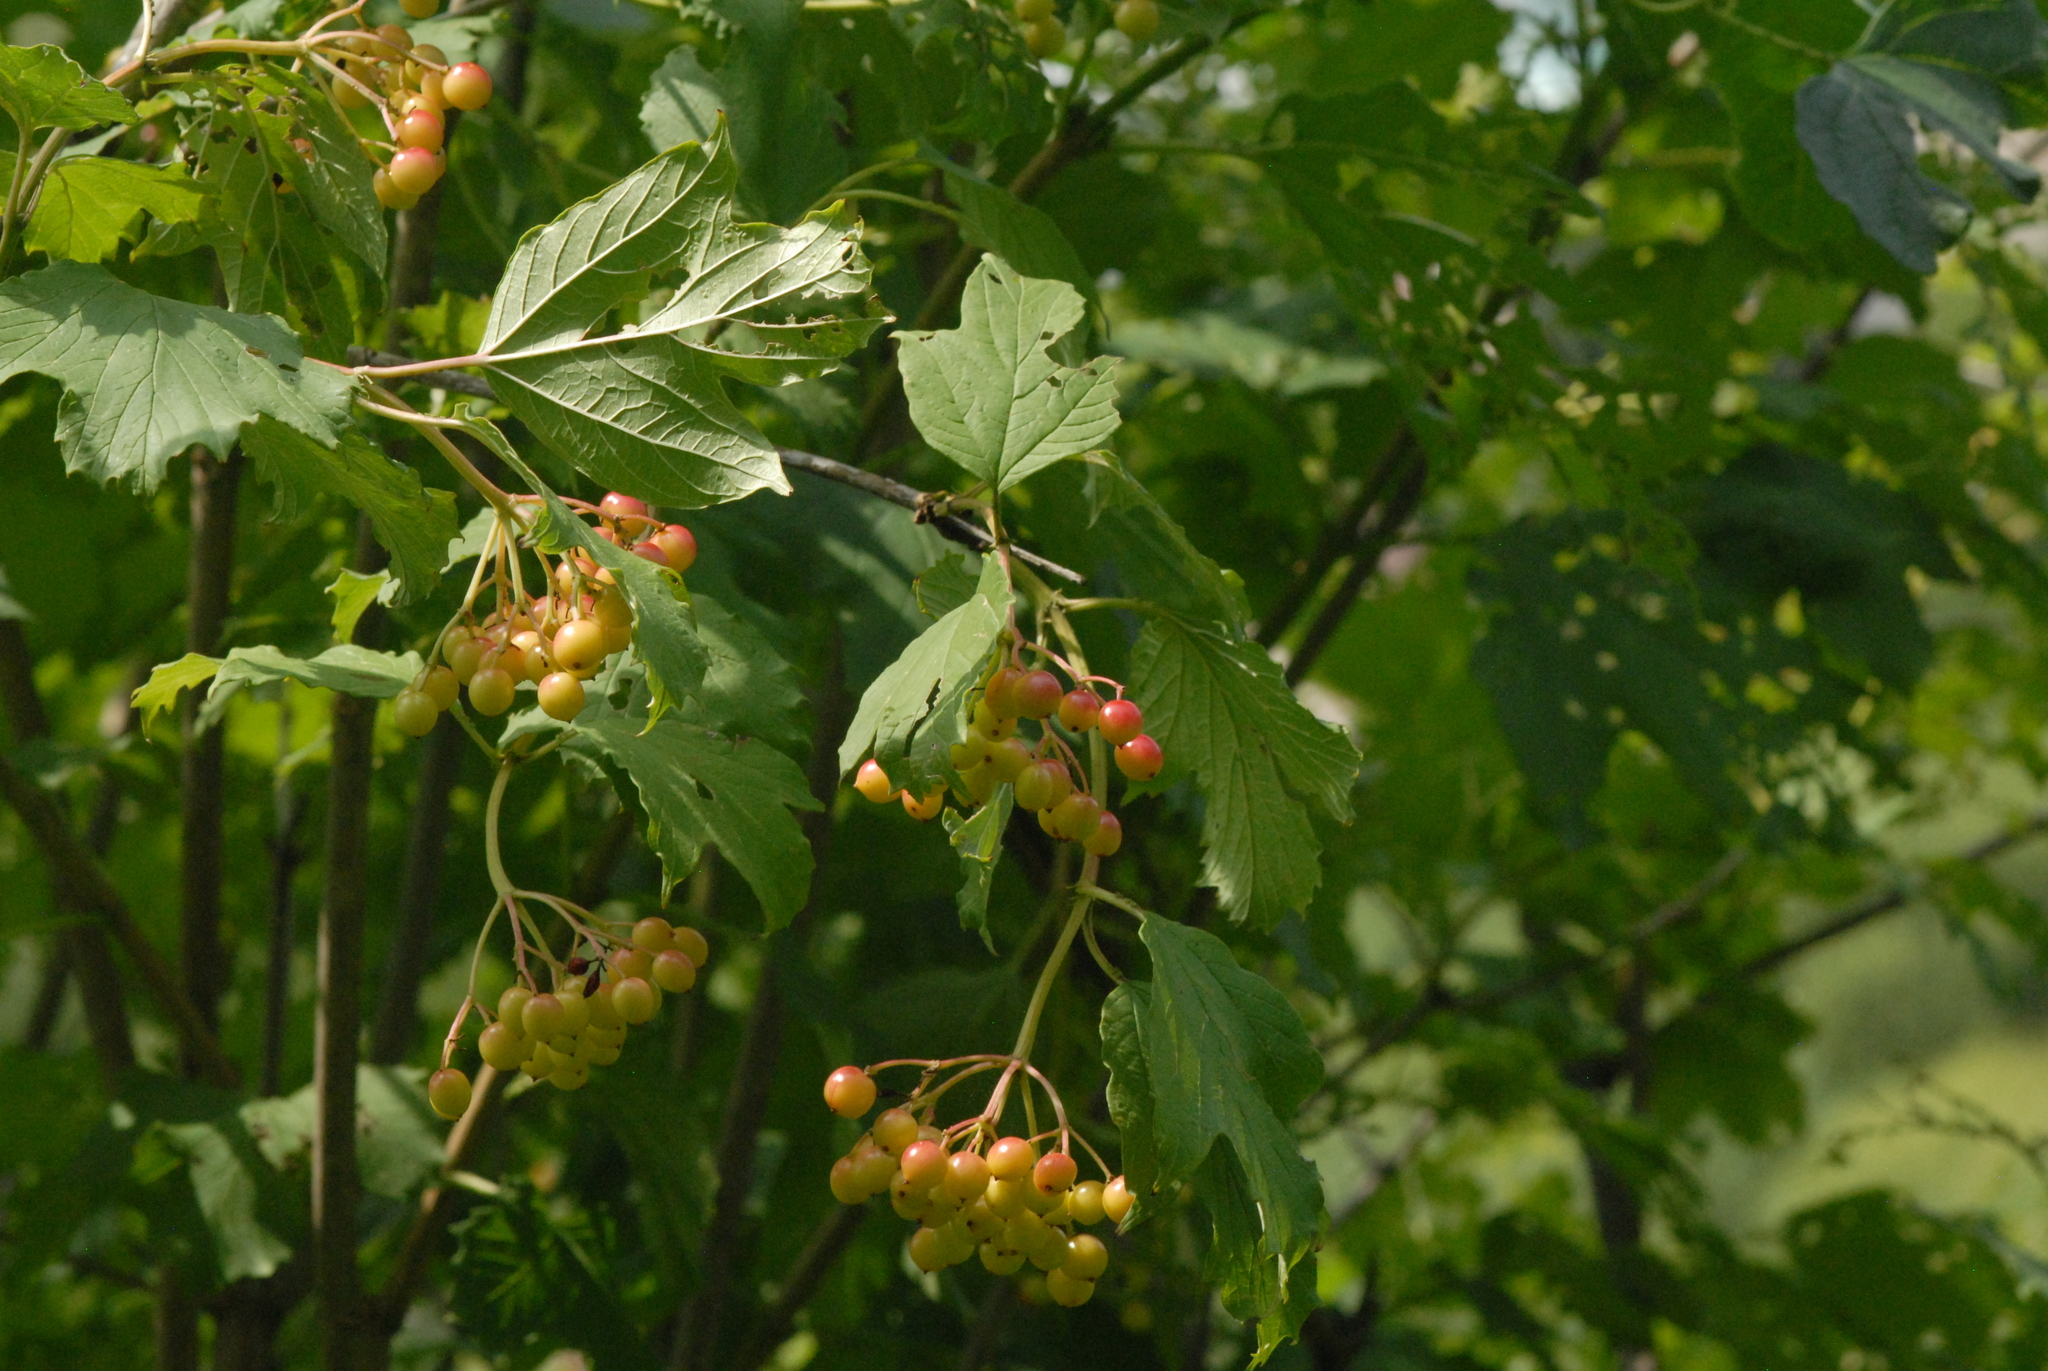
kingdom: Plantae
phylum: Tracheophyta
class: Magnoliopsida
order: Dipsacales
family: Viburnaceae
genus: Viburnum
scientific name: Viburnum opulus
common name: Guelder-rose
